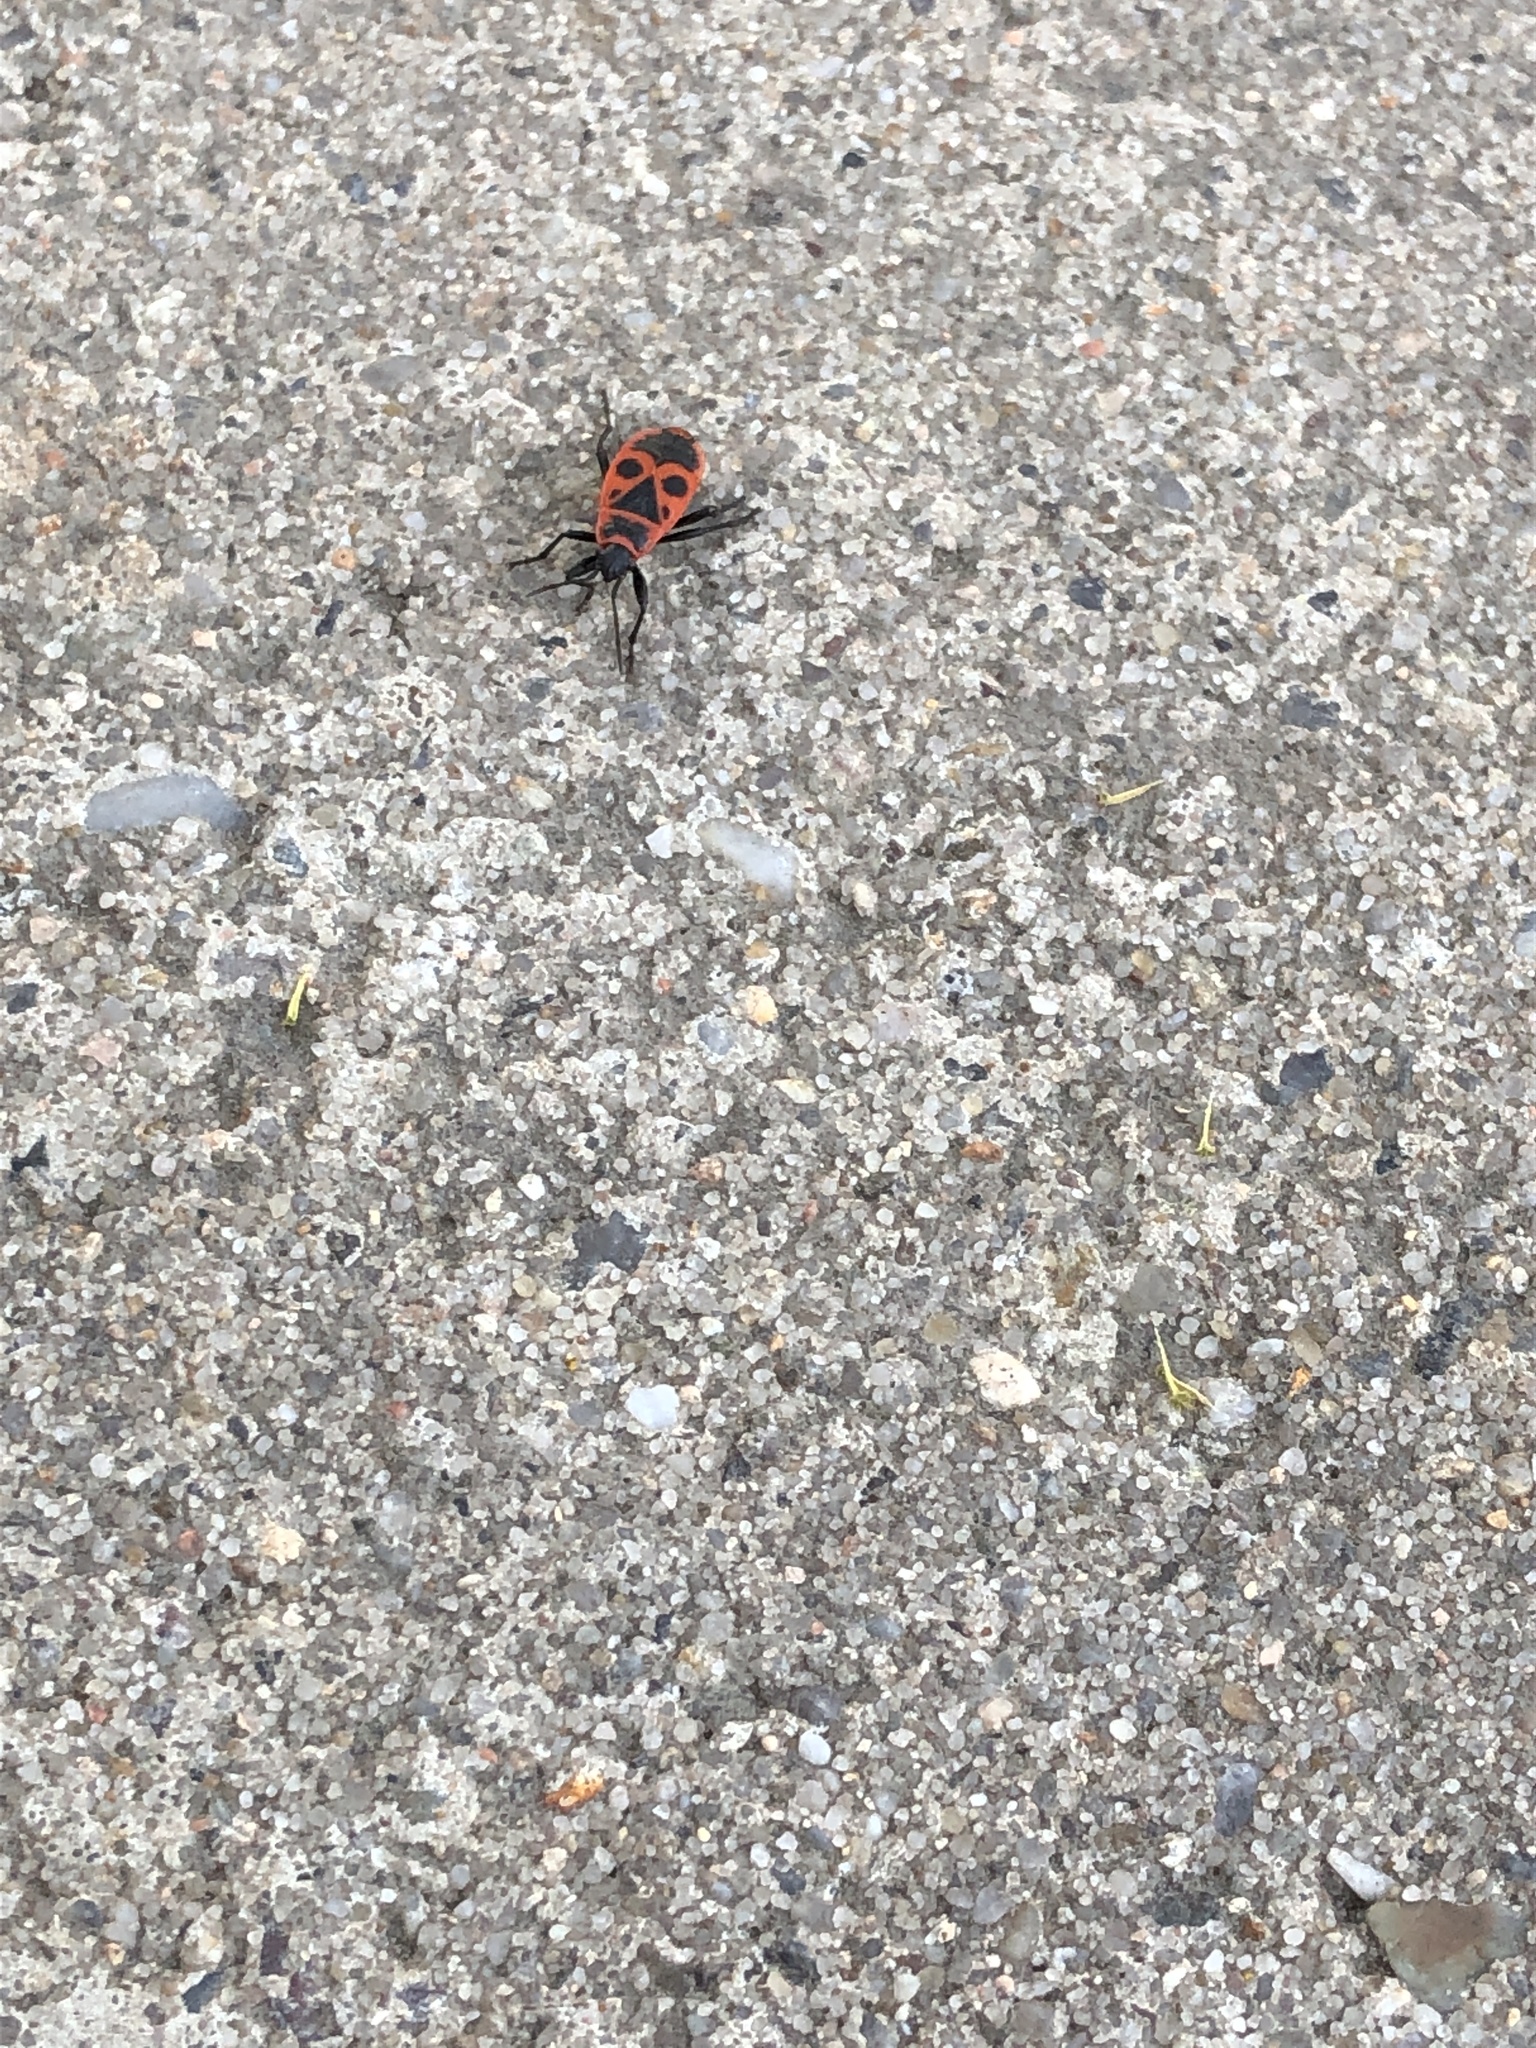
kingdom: Animalia
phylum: Arthropoda
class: Insecta
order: Hemiptera
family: Pyrrhocoridae
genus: Pyrrhocoris
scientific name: Pyrrhocoris apterus
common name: Firebug
